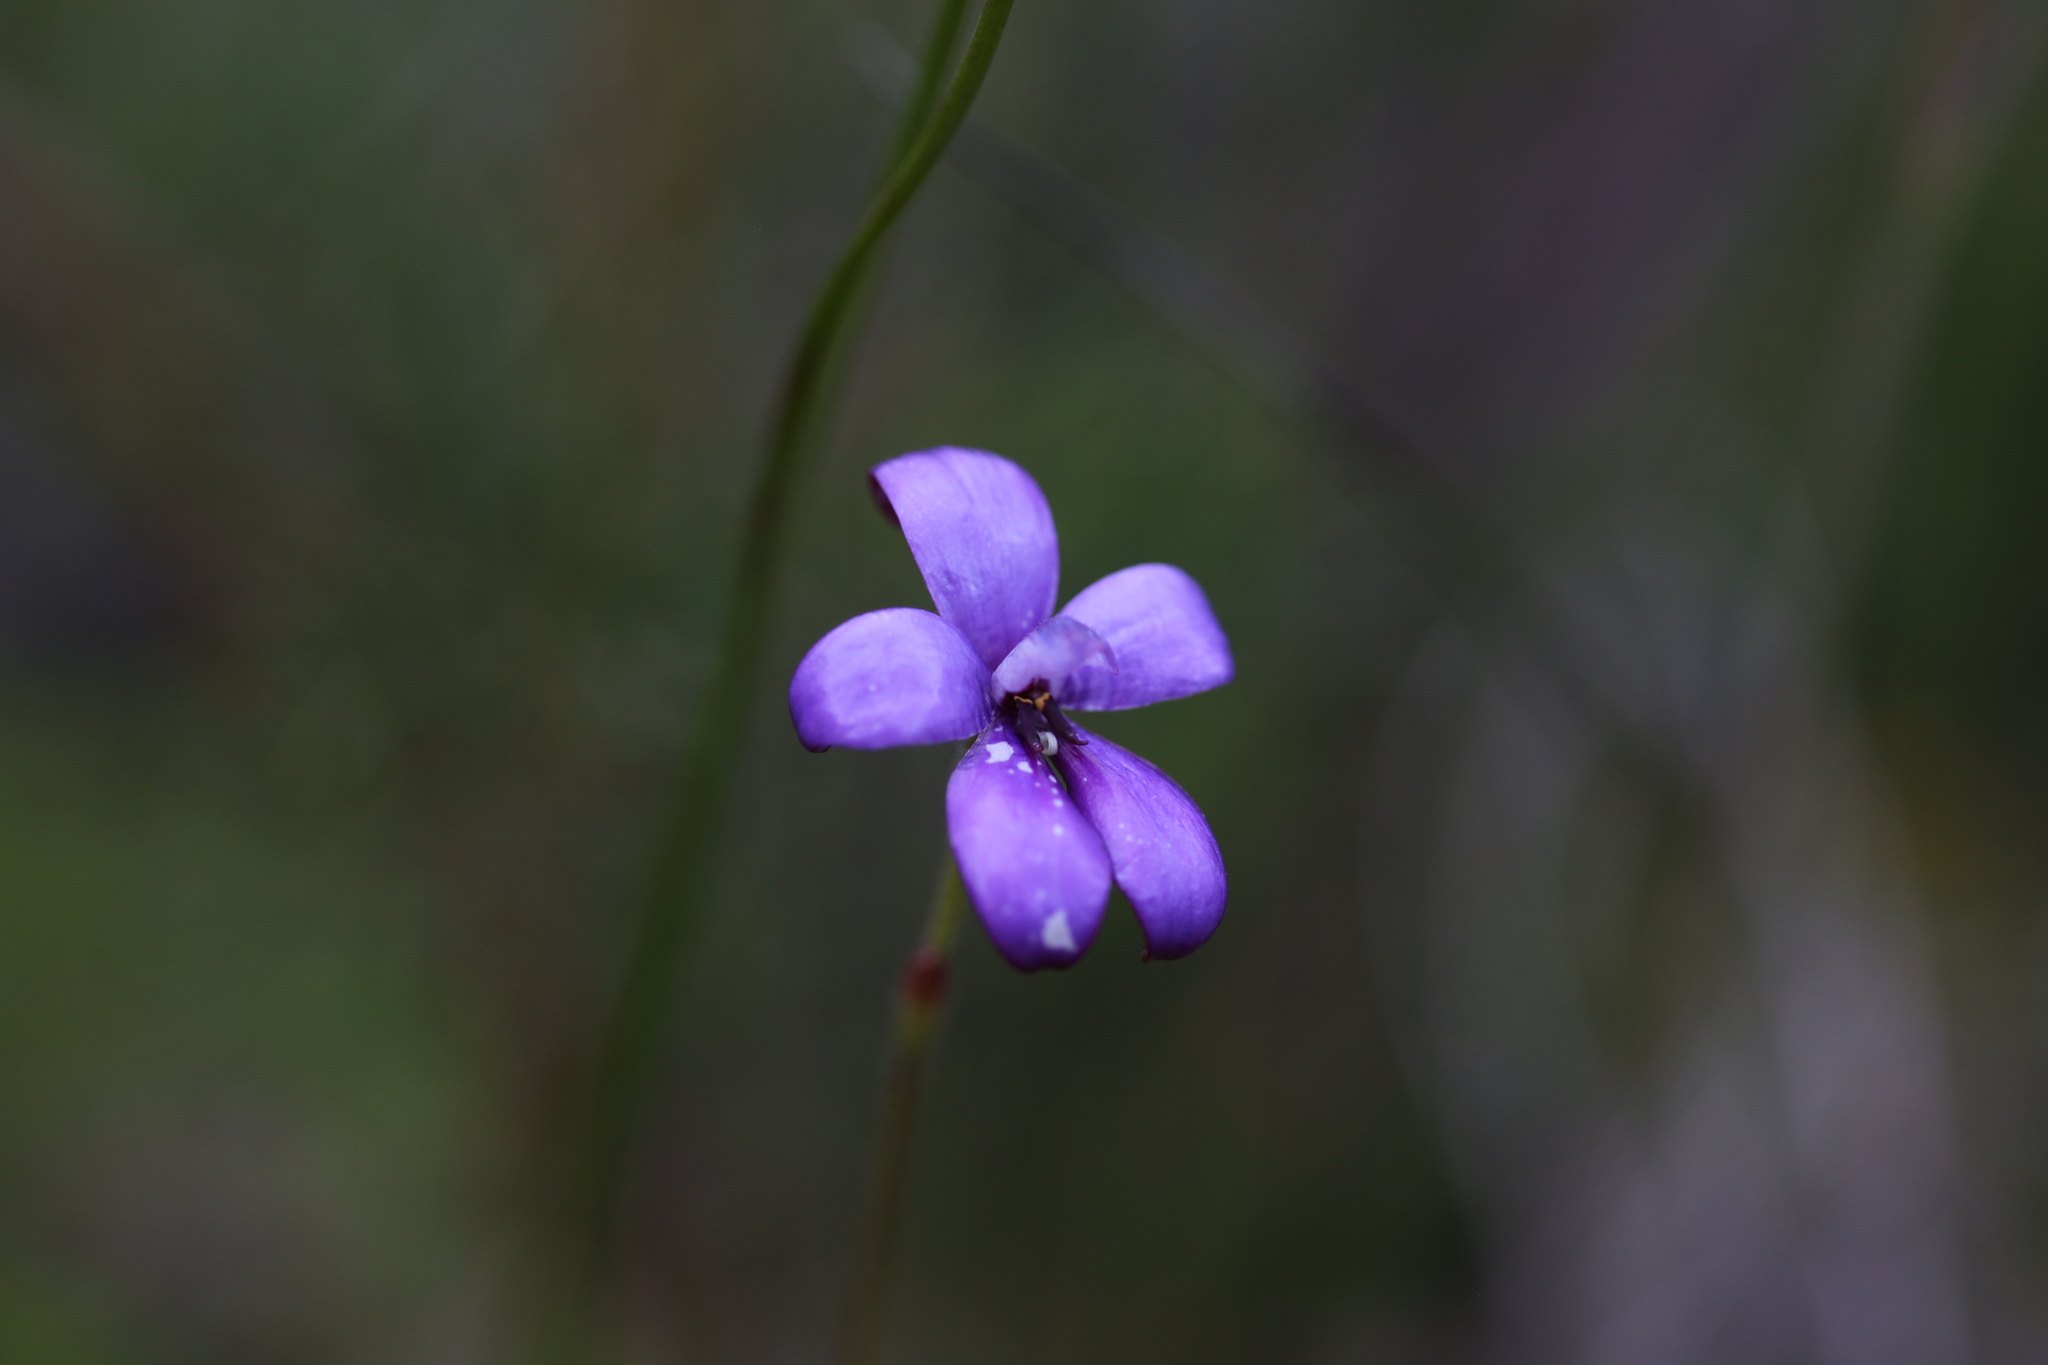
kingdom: Plantae
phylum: Tracheophyta
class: Liliopsida
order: Asparagales
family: Orchidaceae
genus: Caladenia
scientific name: Caladenia brunonis
